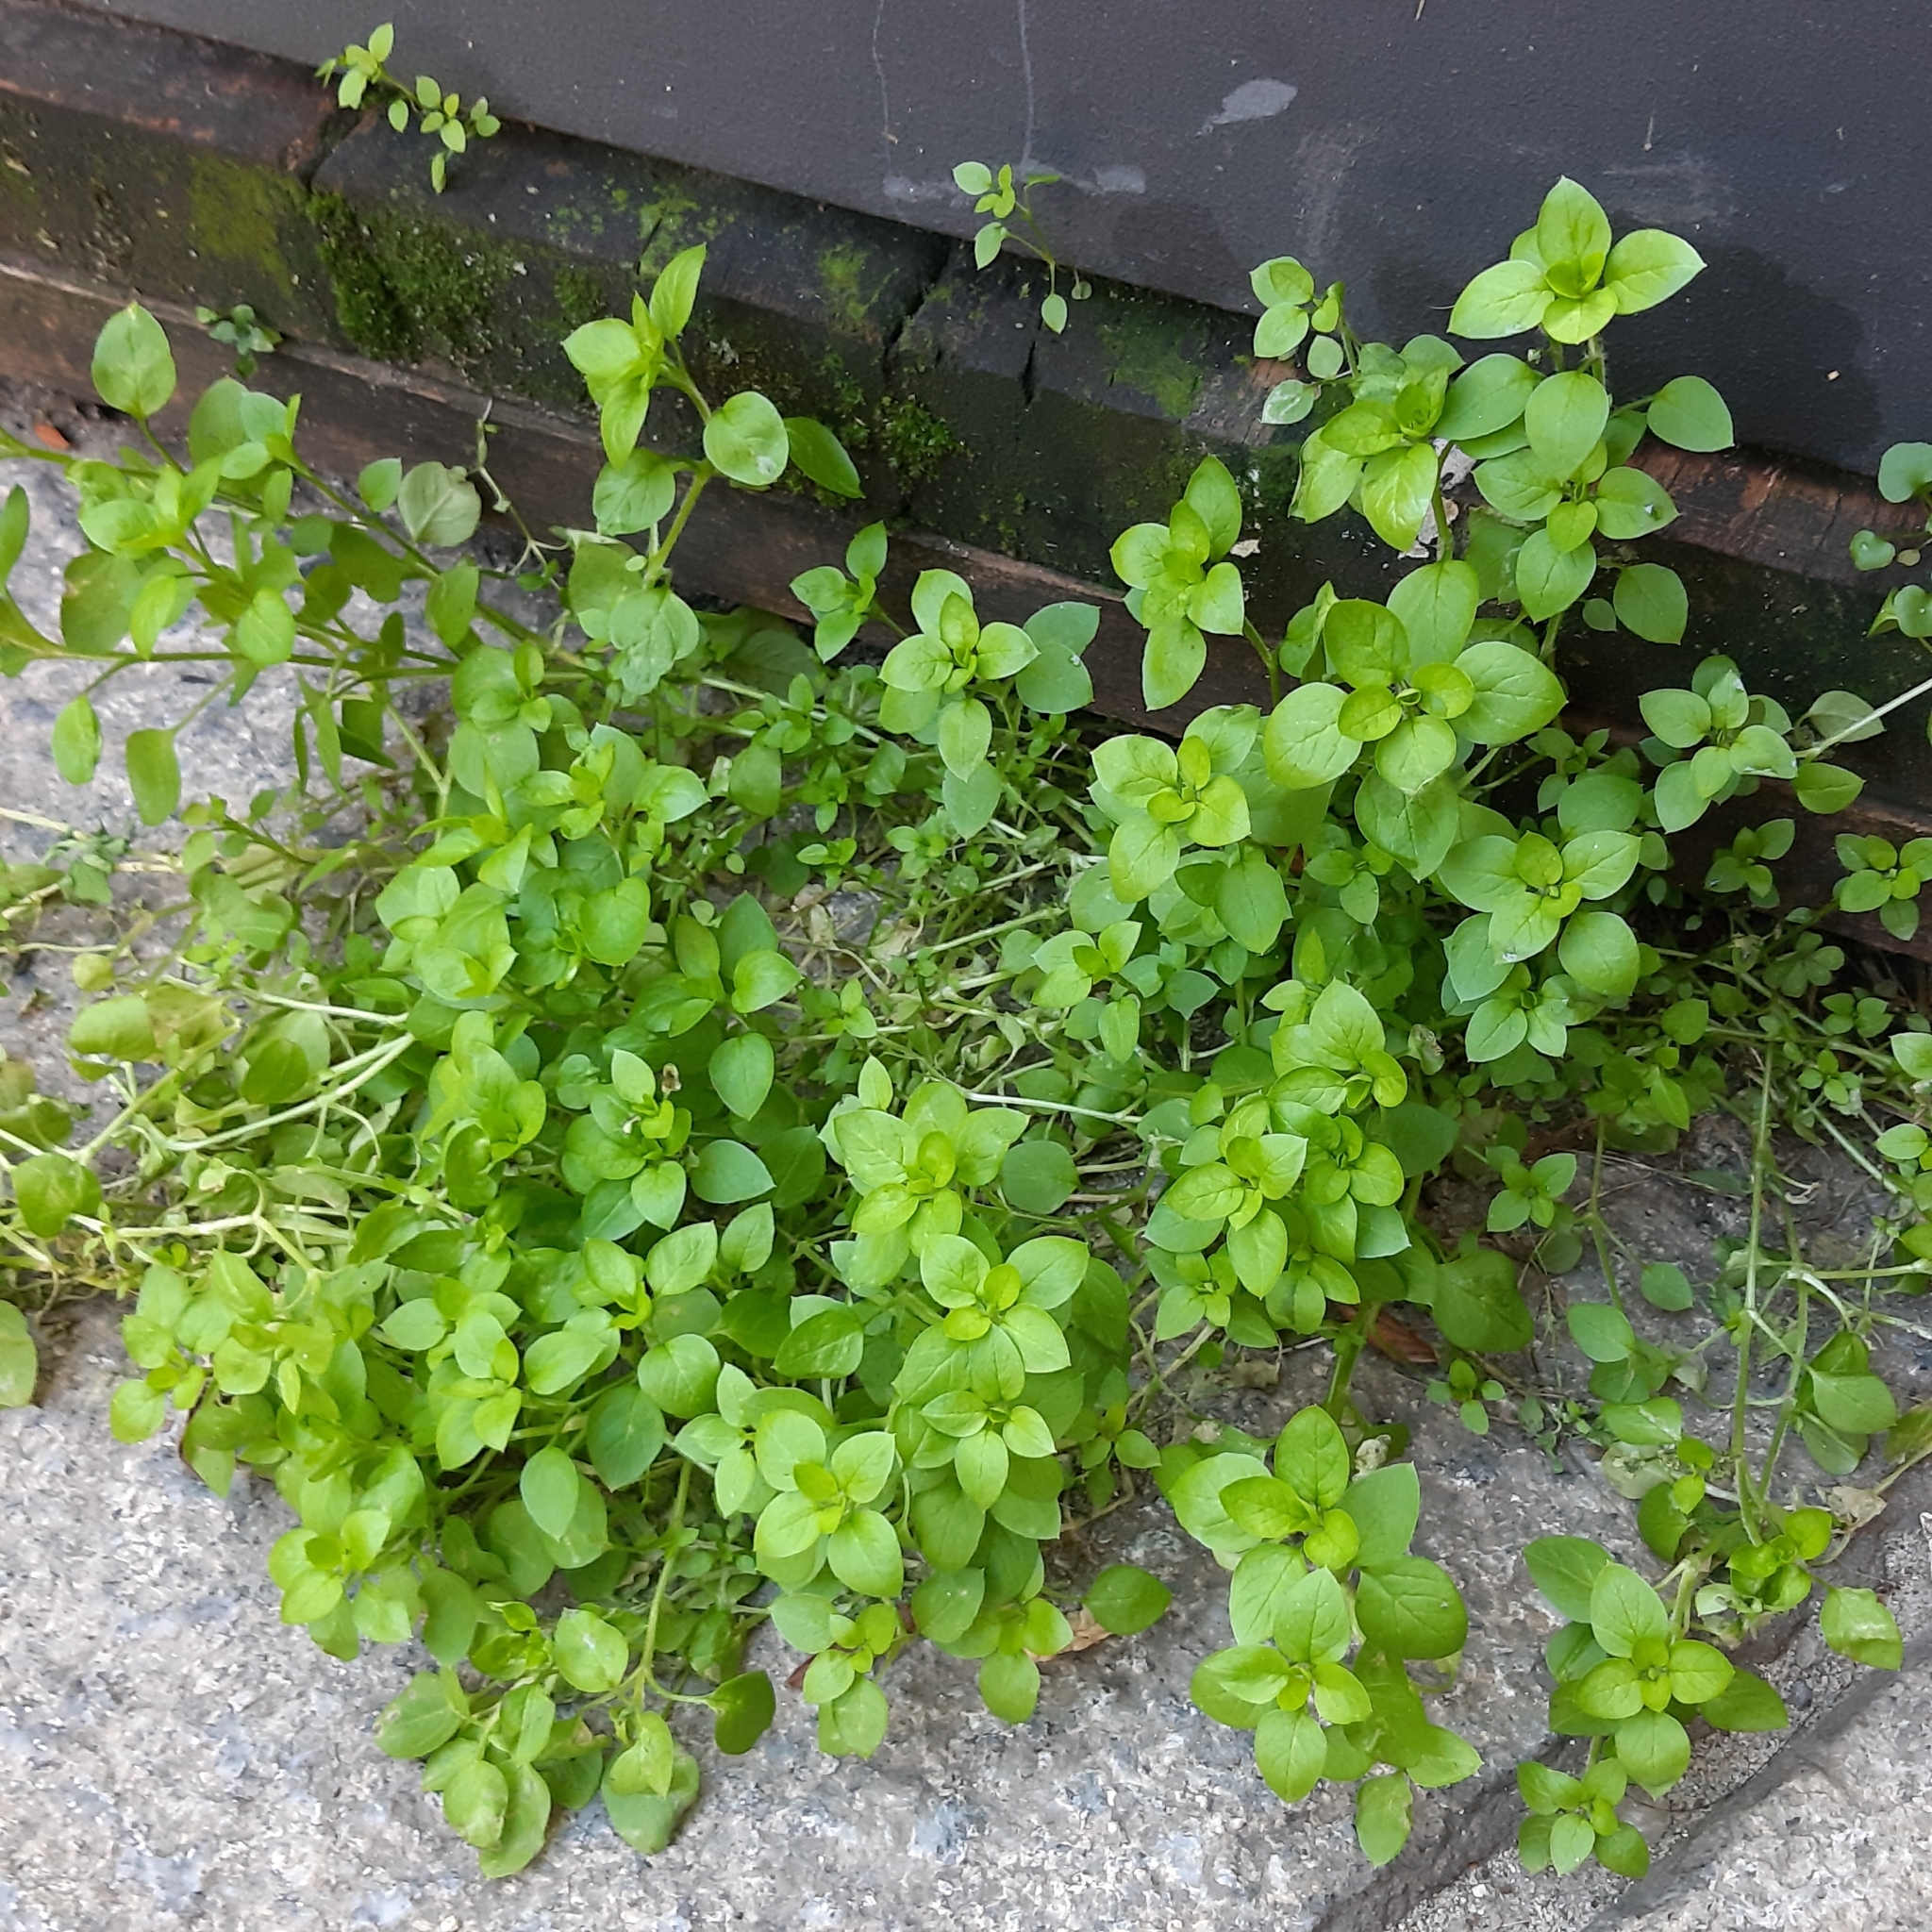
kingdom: Plantae
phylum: Tracheophyta
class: Magnoliopsida
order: Caryophyllales
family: Caryophyllaceae
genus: Stellaria
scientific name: Stellaria media
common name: Common chickweed
